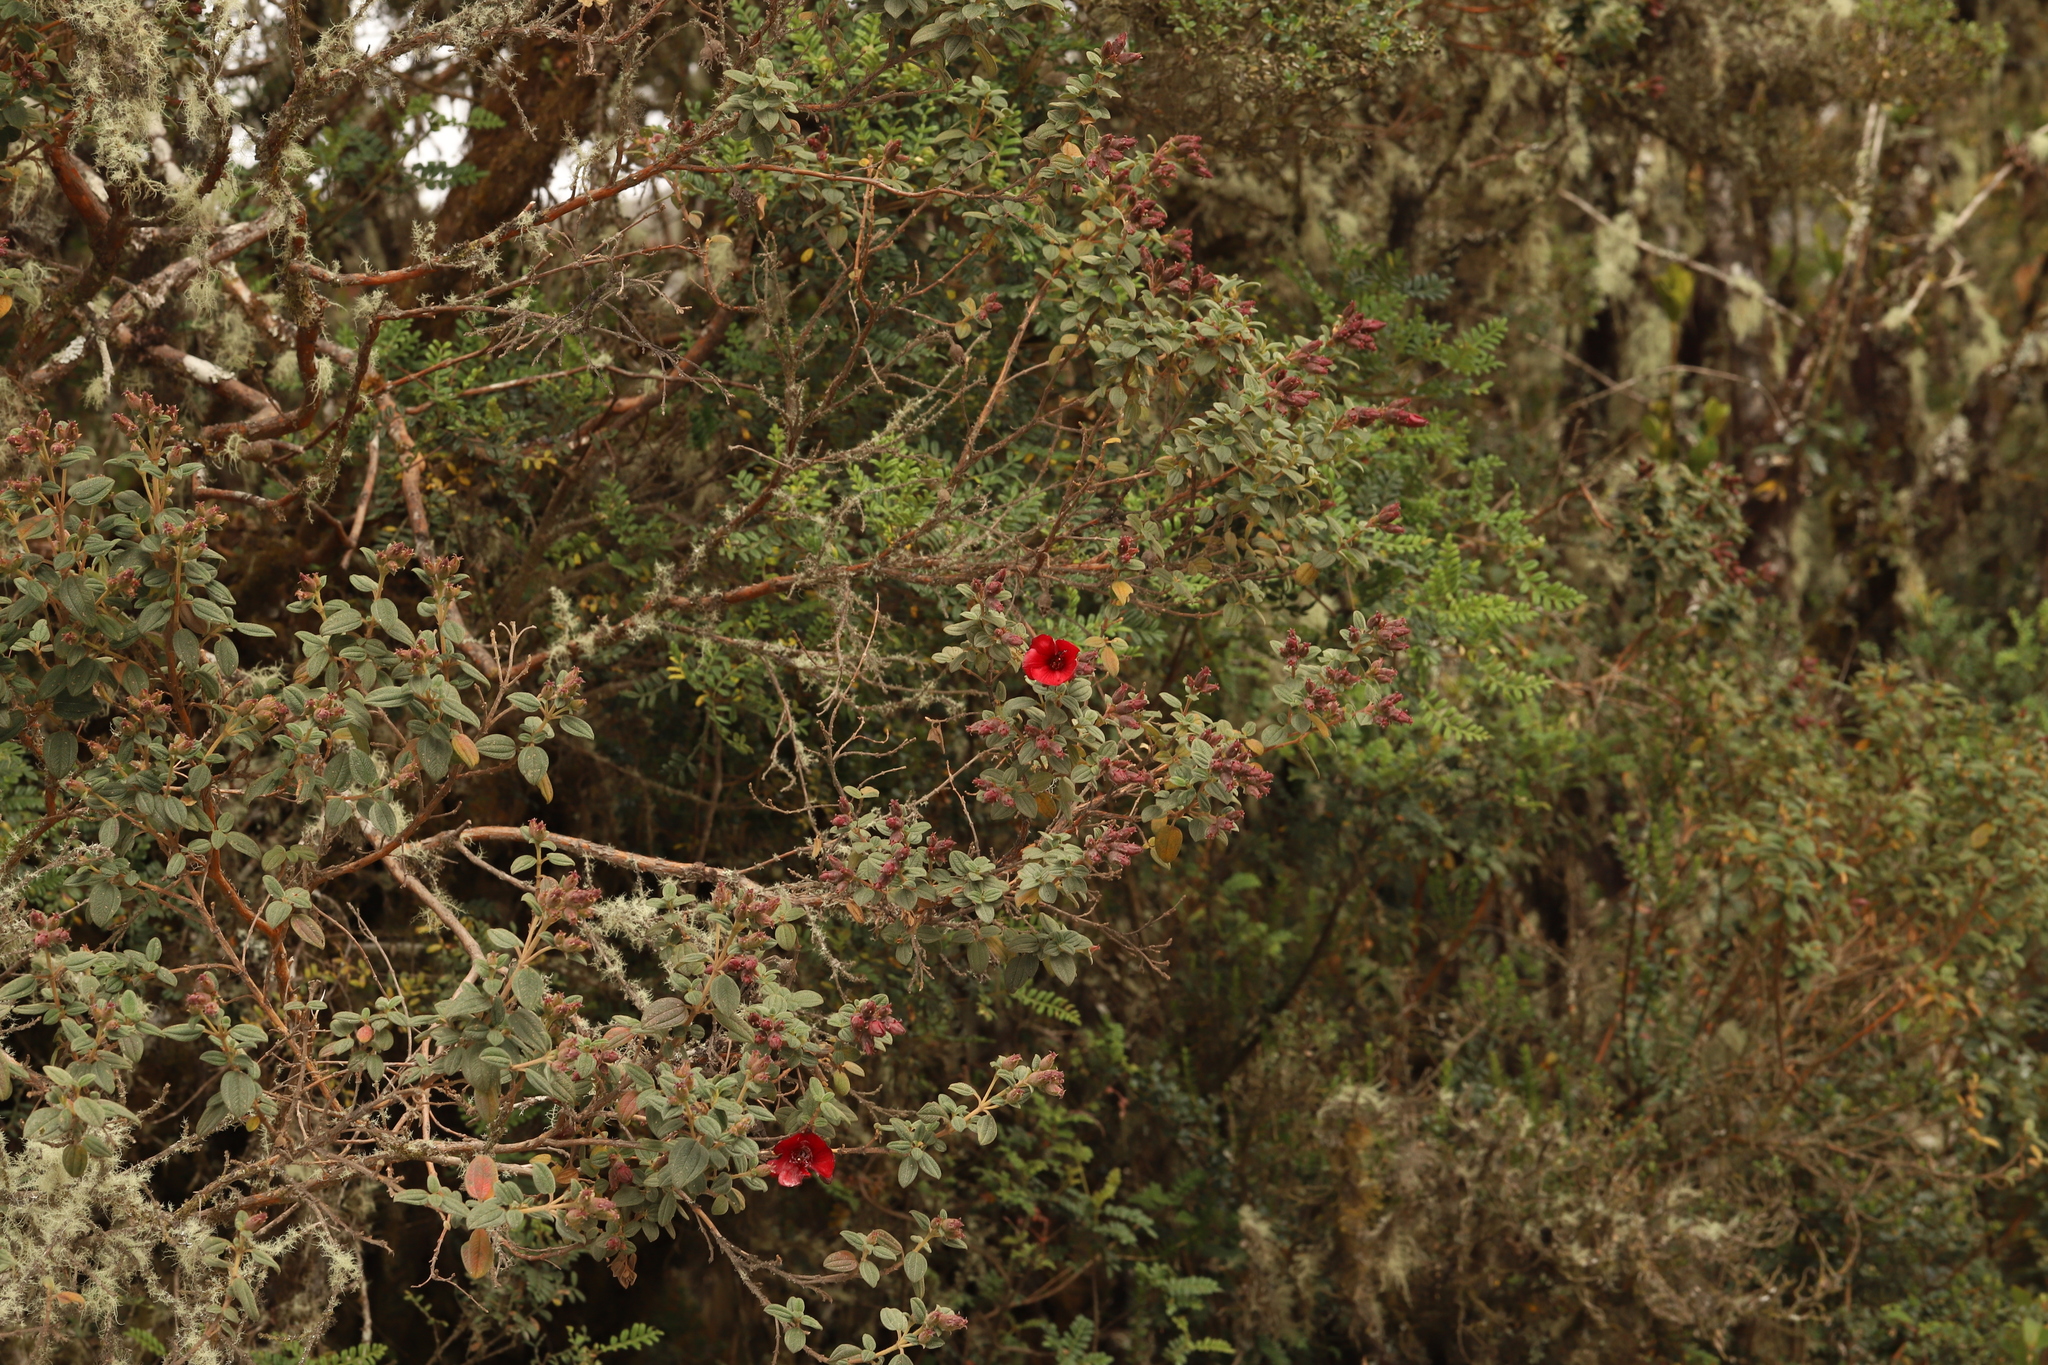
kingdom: Plantae
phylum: Tracheophyta
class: Magnoliopsida
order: Myrtales
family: Melastomataceae
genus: Chaetogastra
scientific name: Chaetogastra grossa
